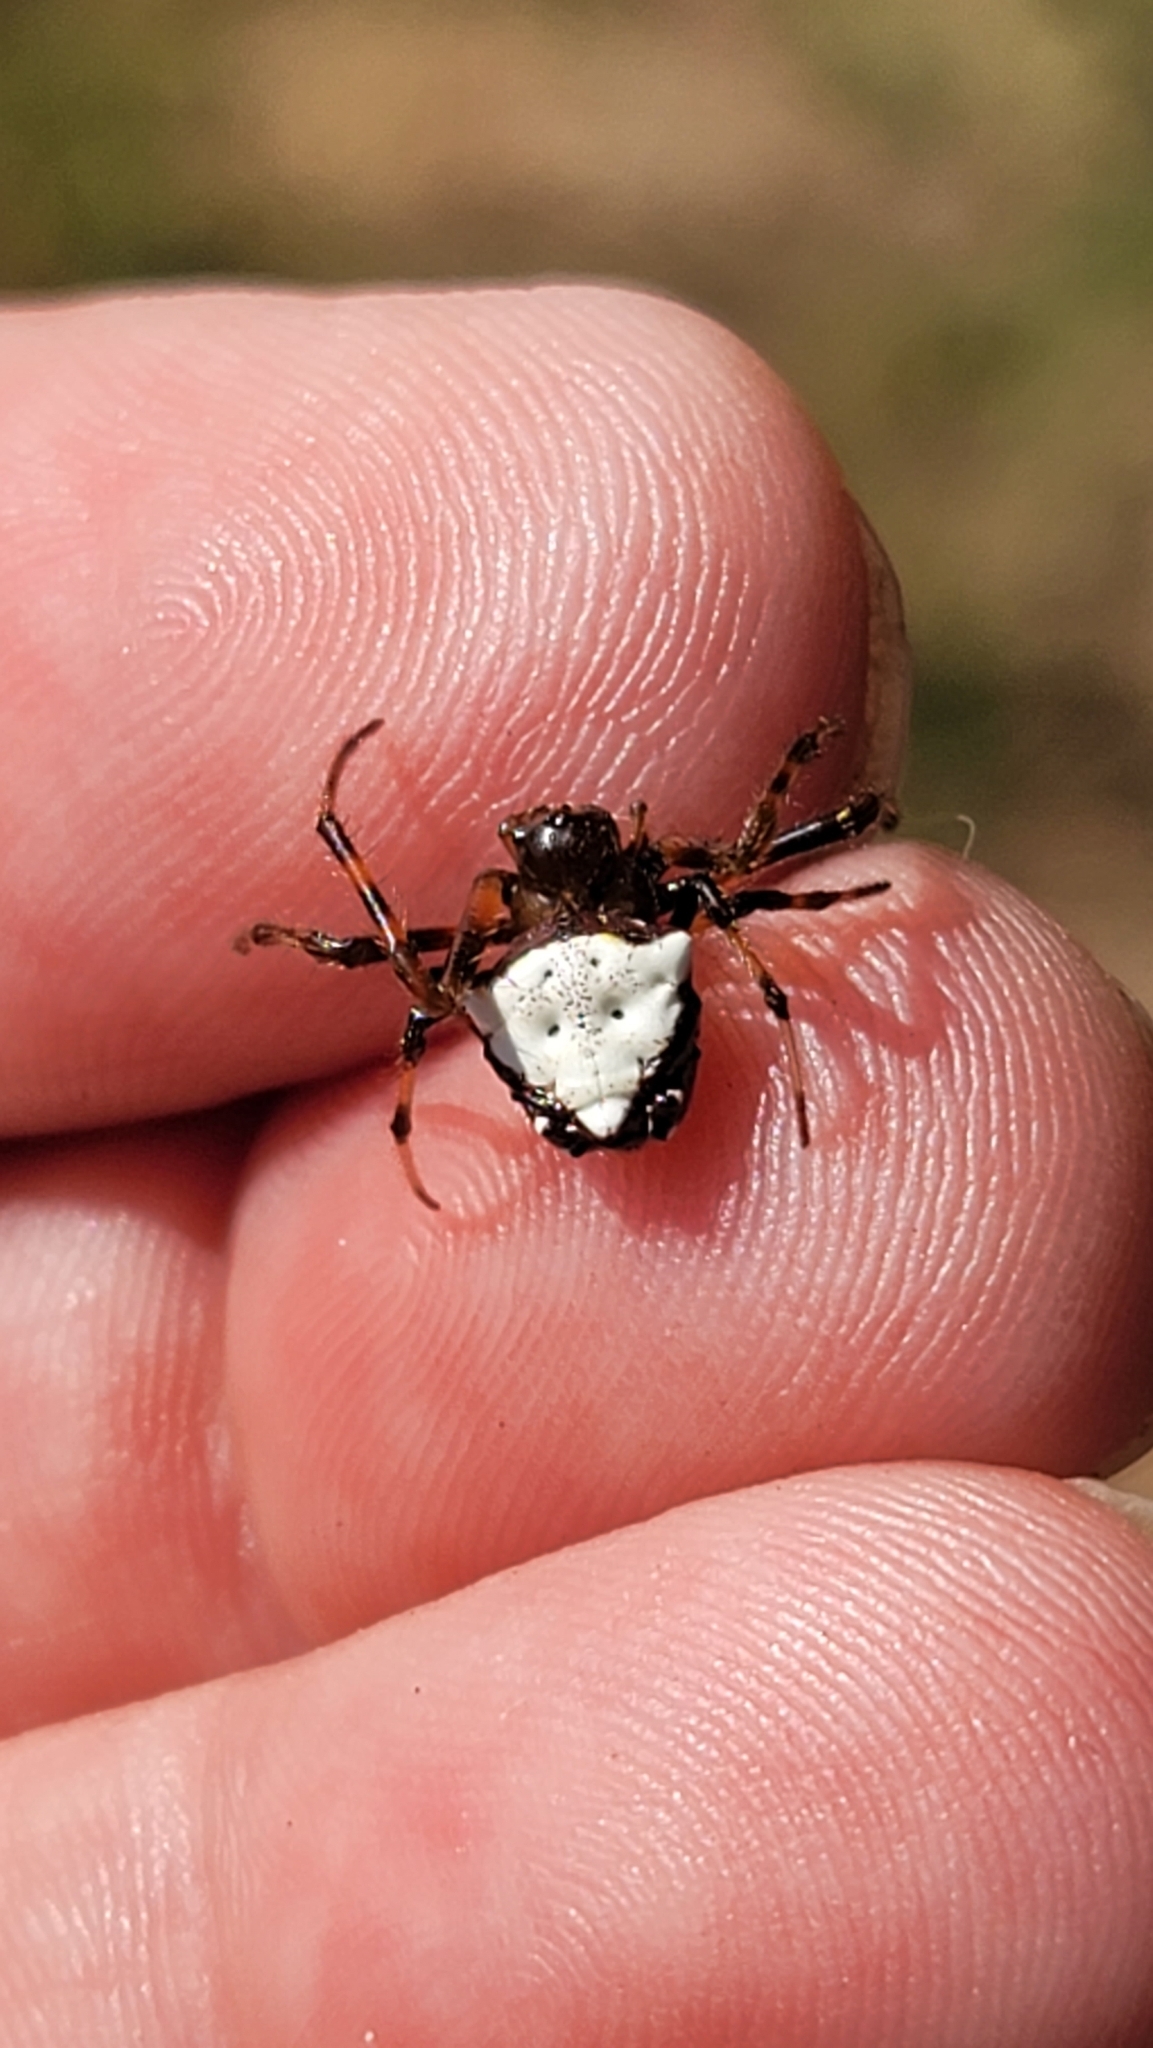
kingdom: Animalia
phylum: Arthropoda
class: Arachnida
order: Araneae
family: Araneidae
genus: Verrucosa
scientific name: Verrucosa arenata
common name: Orb weavers
